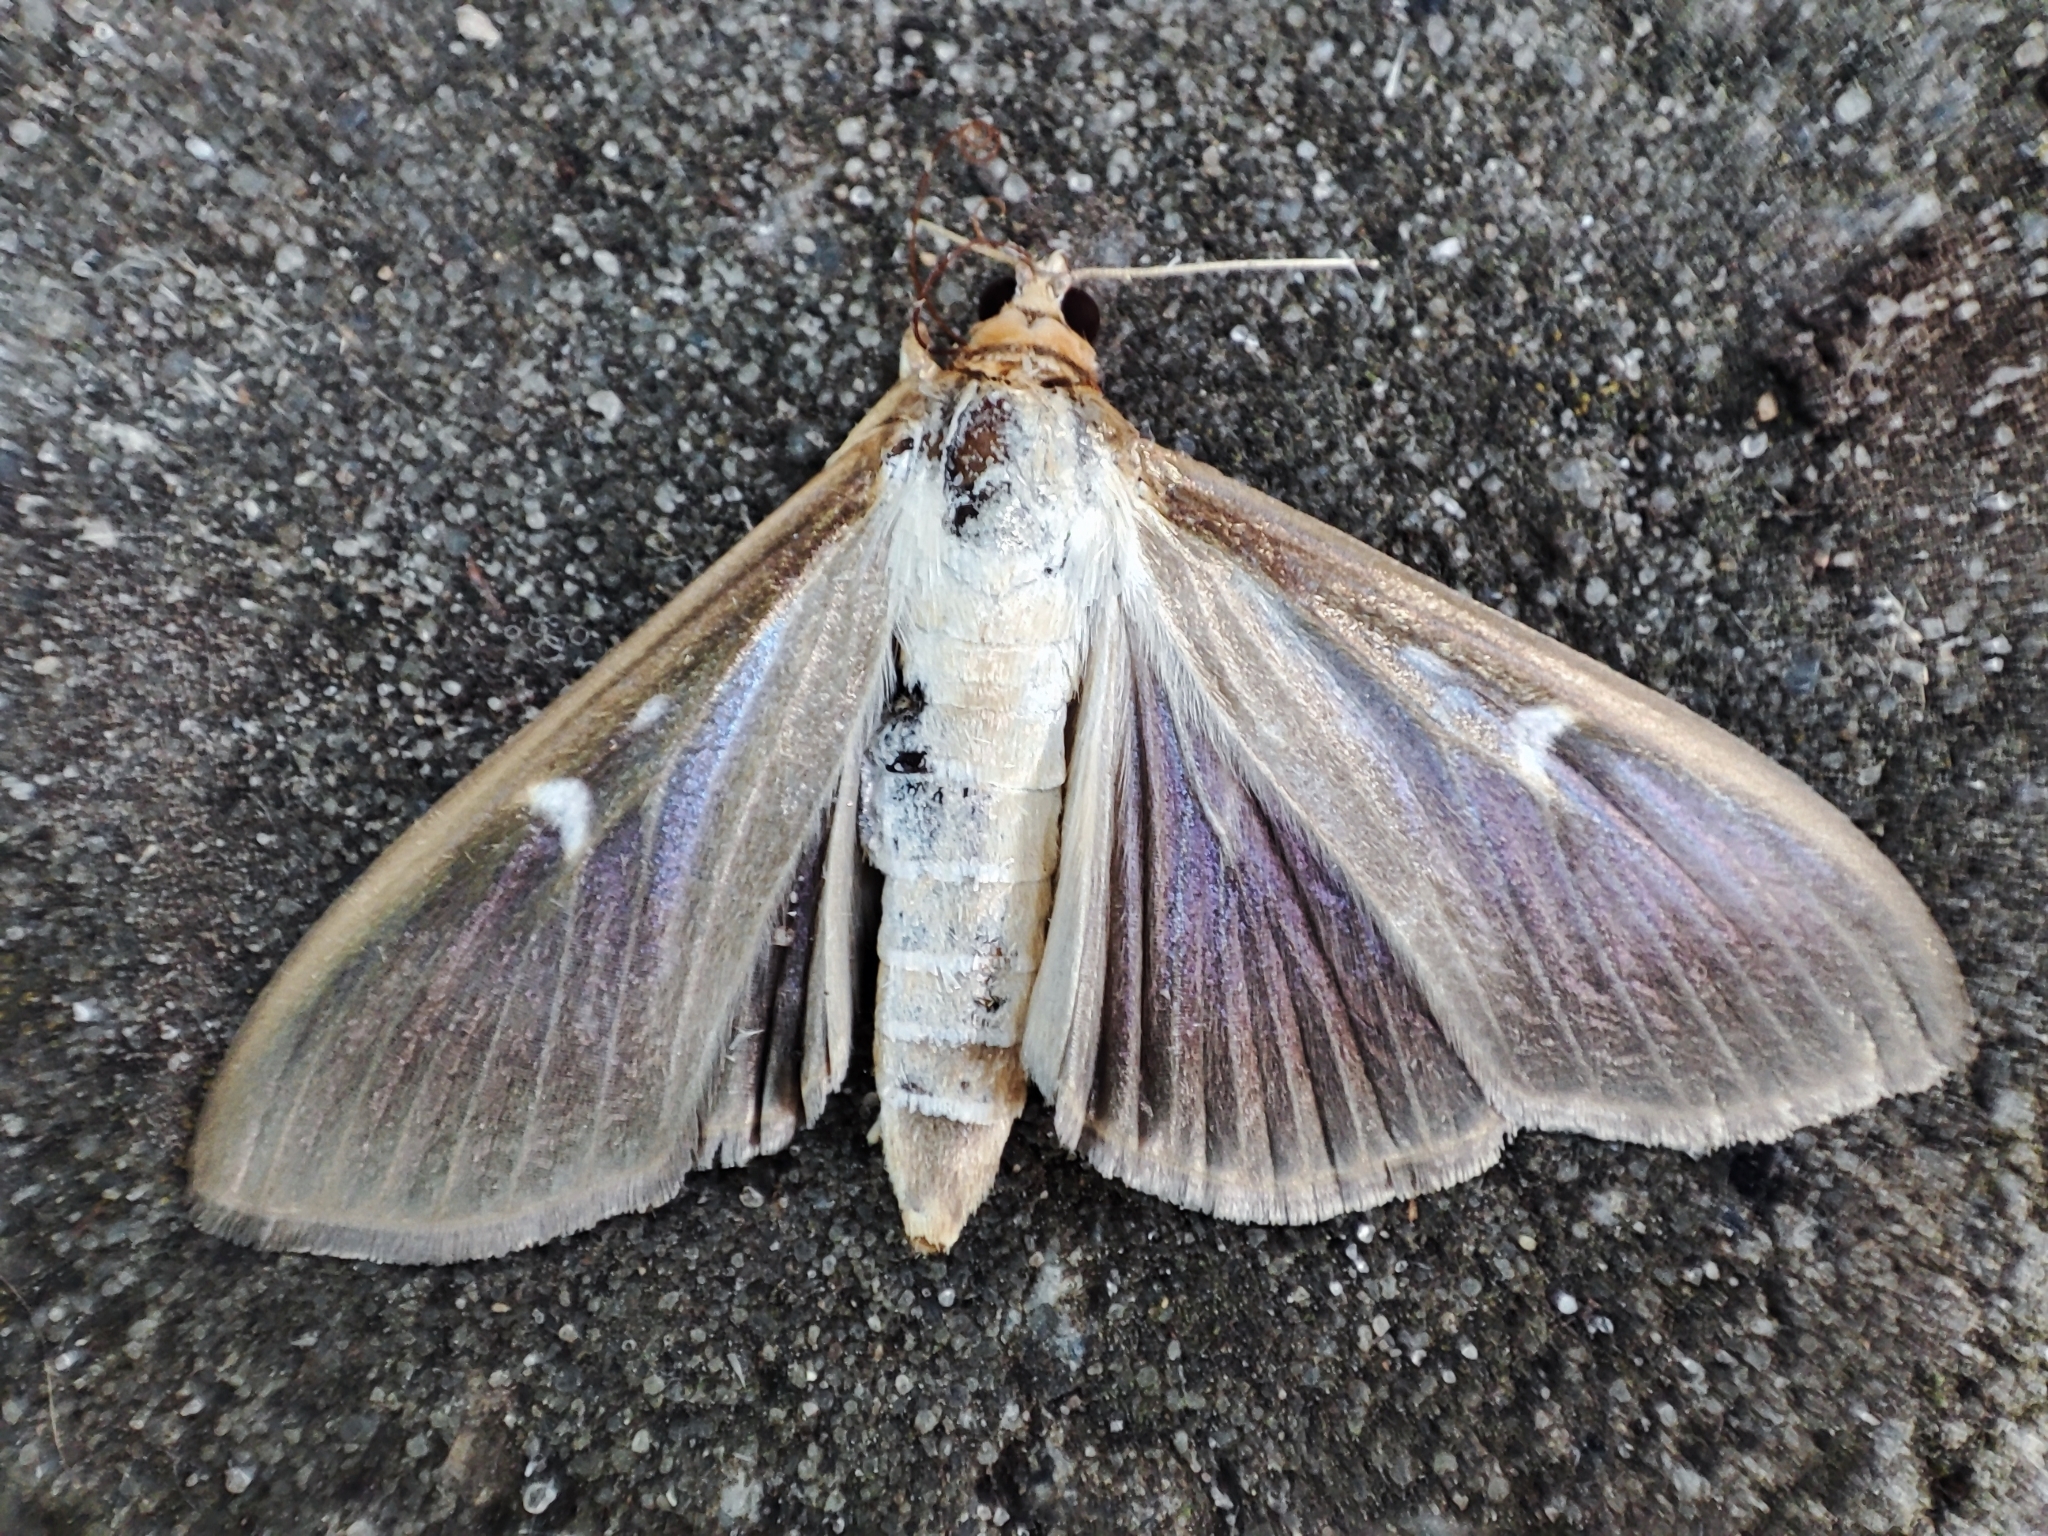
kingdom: Animalia
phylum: Arthropoda
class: Insecta
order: Lepidoptera
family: Crambidae
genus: Cydalima
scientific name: Cydalima perspectalis
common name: Box tree moth
